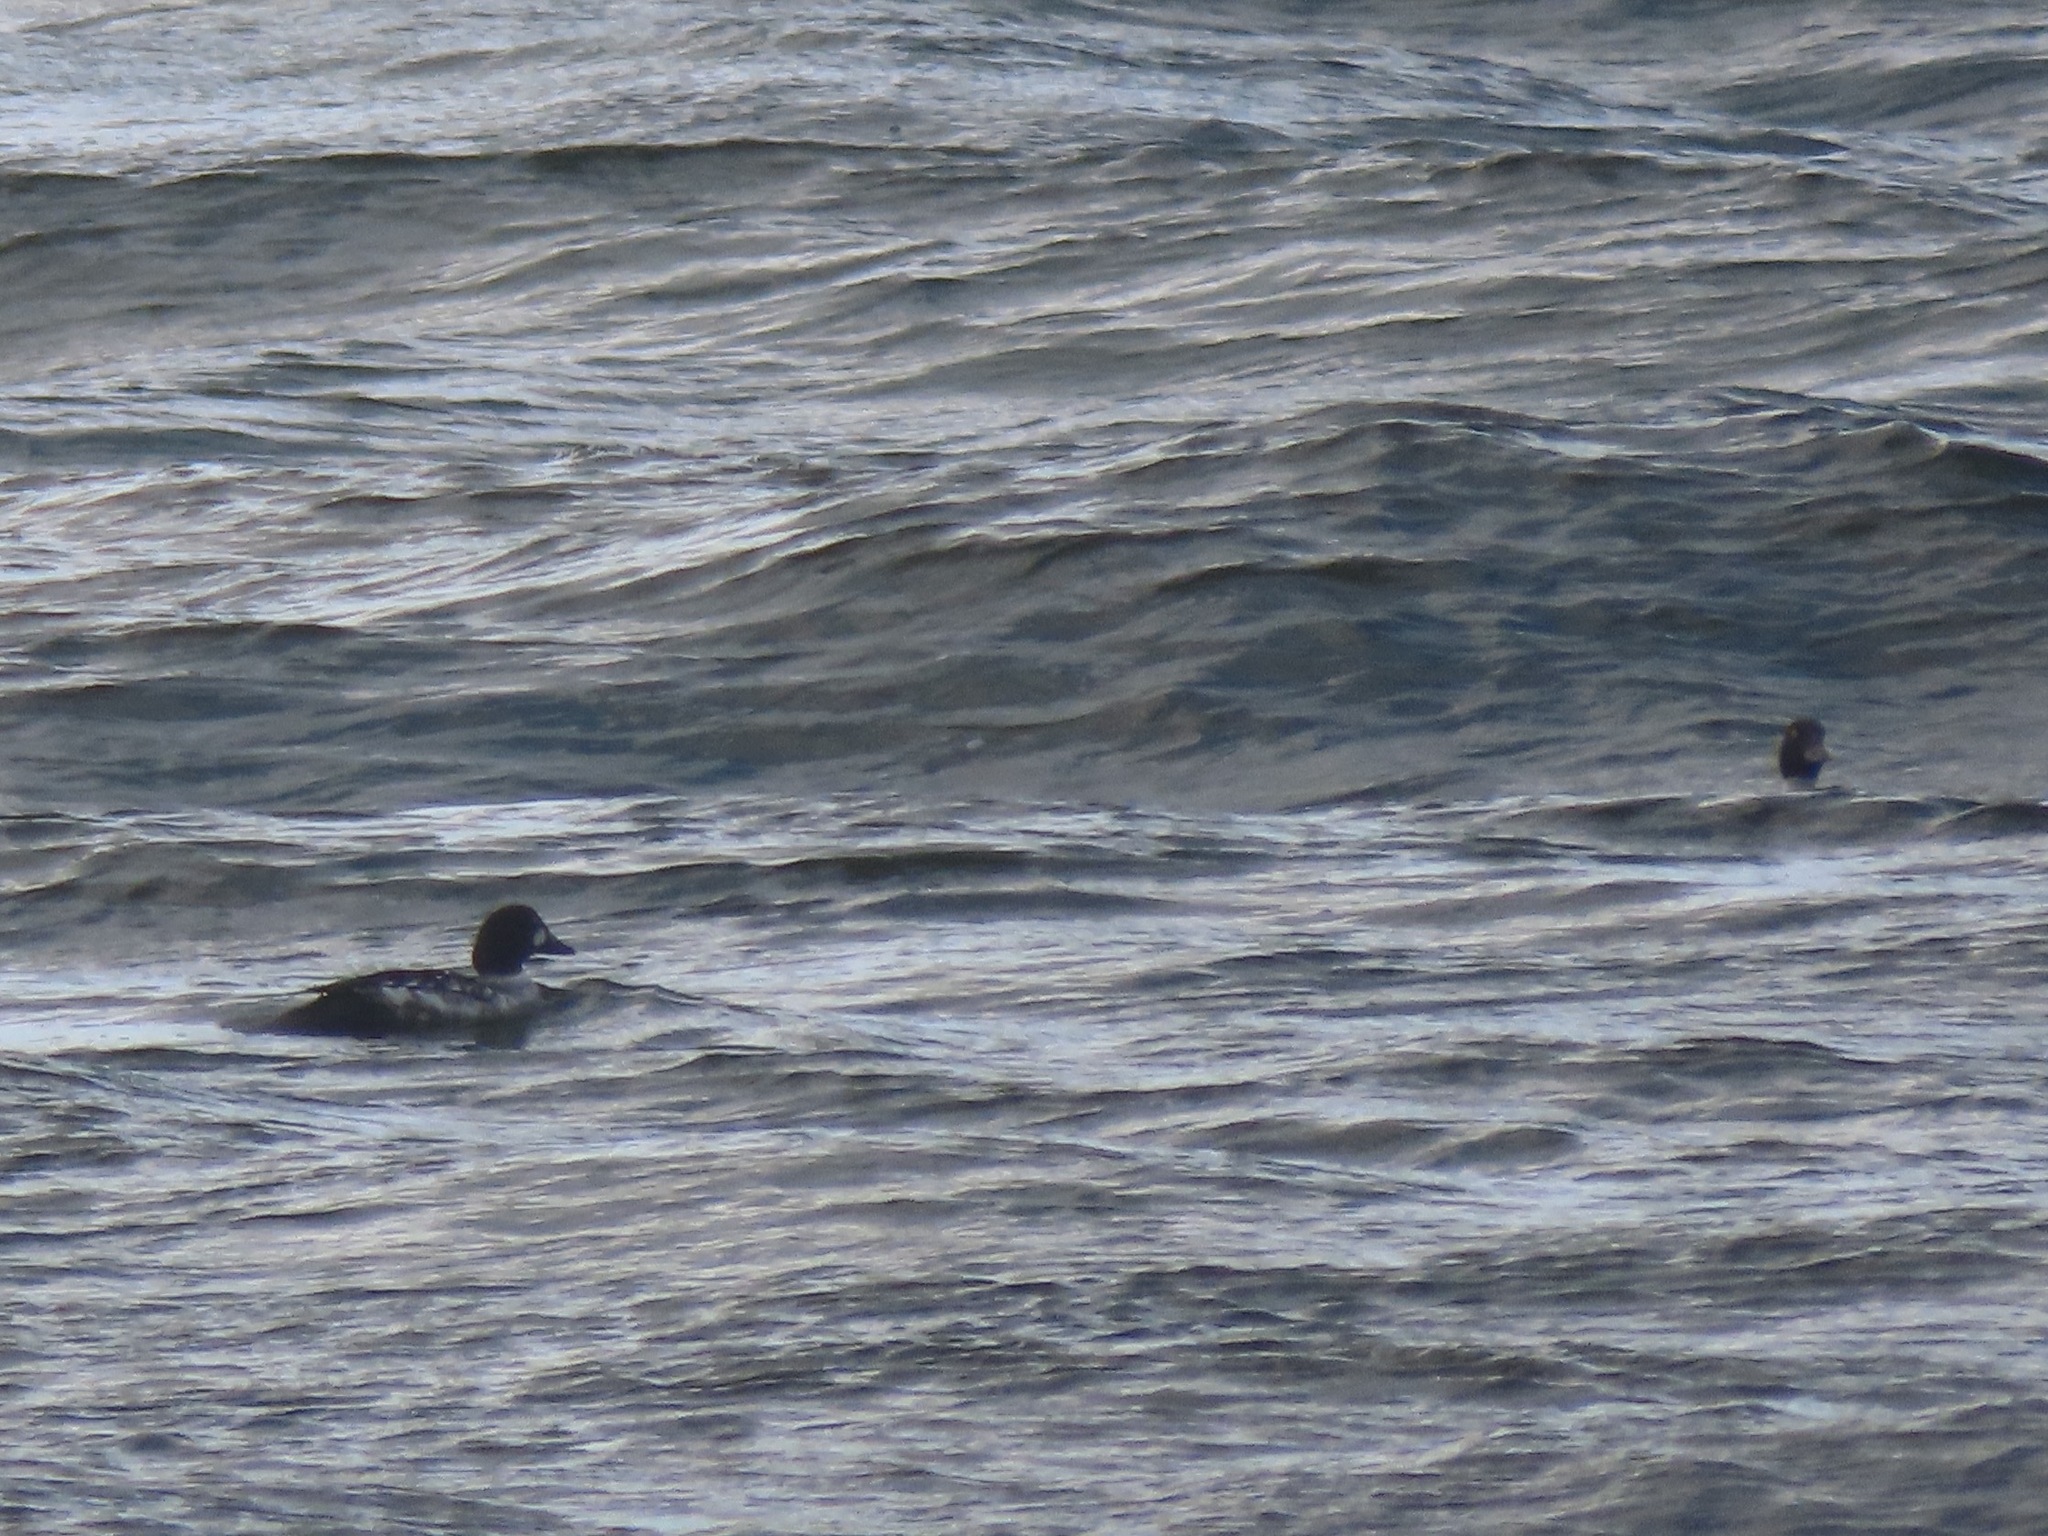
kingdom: Animalia
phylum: Chordata
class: Aves
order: Anseriformes
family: Anatidae
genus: Bucephala
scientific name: Bucephala clangula
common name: Common goldeneye
